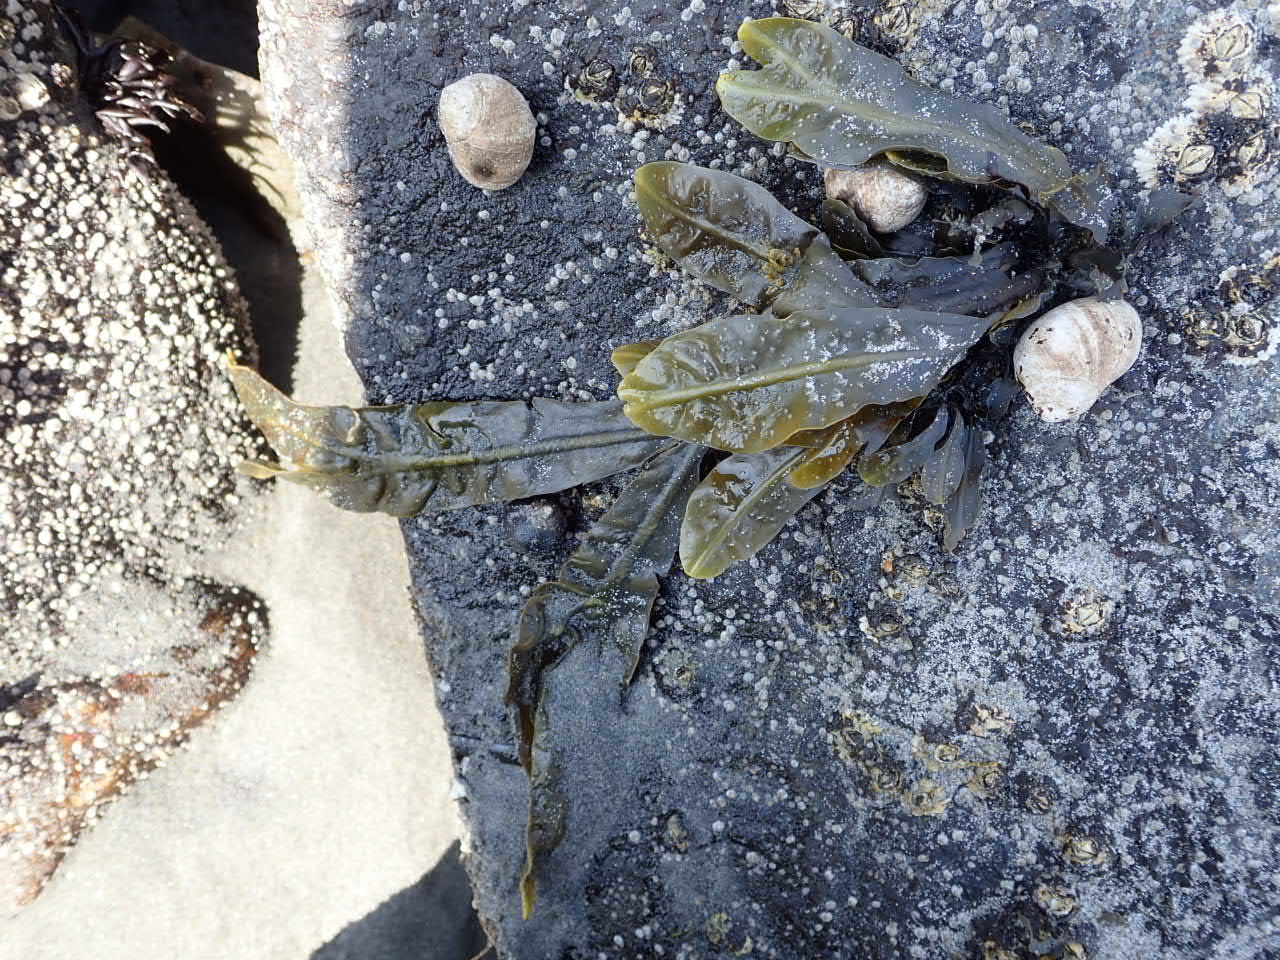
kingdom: Chromista
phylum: Ochrophyta
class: Phaeophyceae
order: Fucales
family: Fucaceae
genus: Fucus
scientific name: Fucus vesiculosus
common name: Bladder wrack
